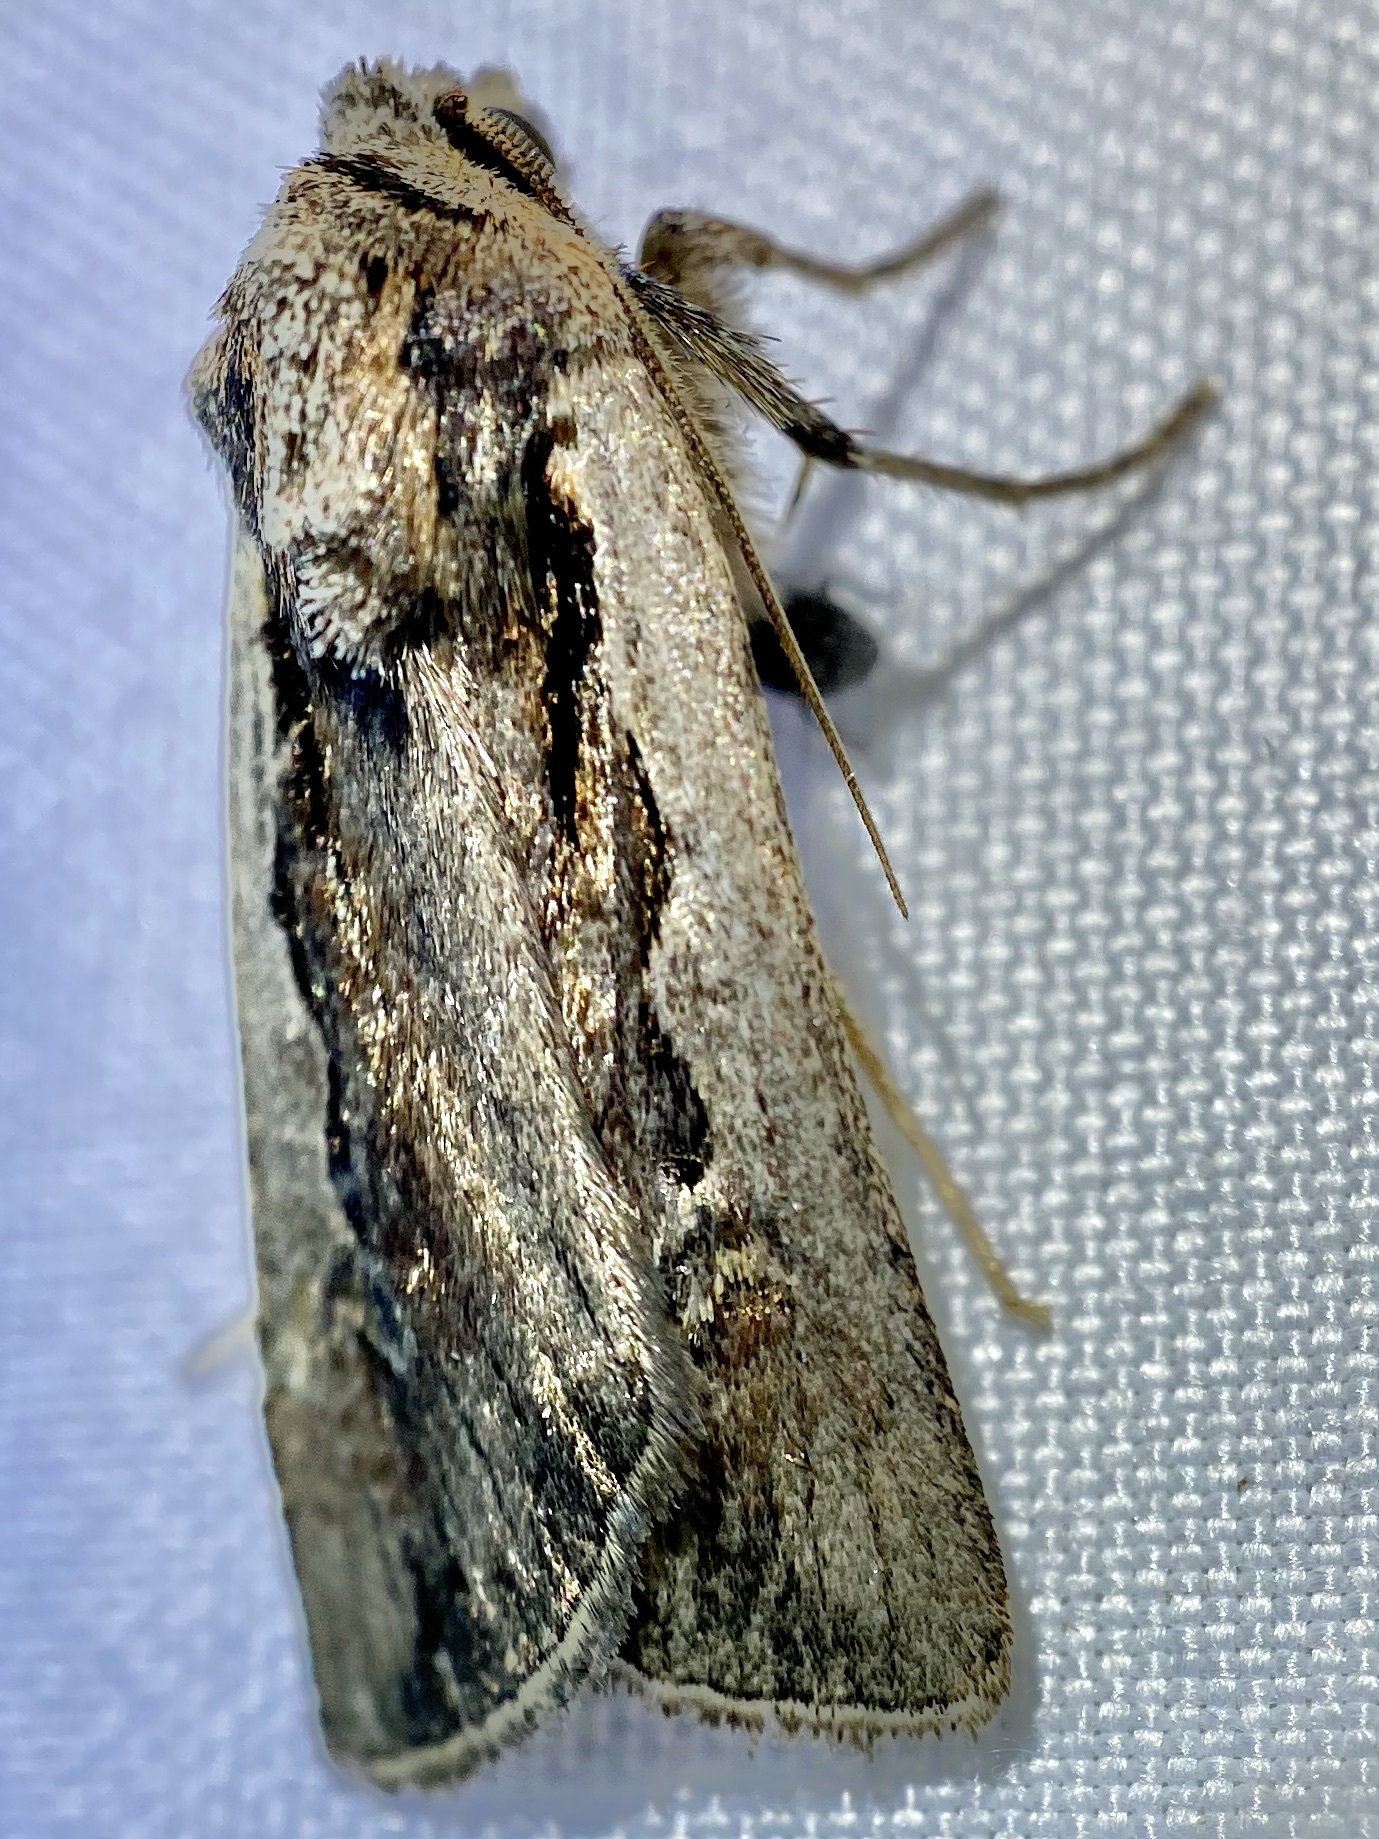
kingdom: Animalia
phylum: Arthropoda
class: Insecta
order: Lepidoptera
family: Noctuidae
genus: Euxoa
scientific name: Euxoa hollemani
